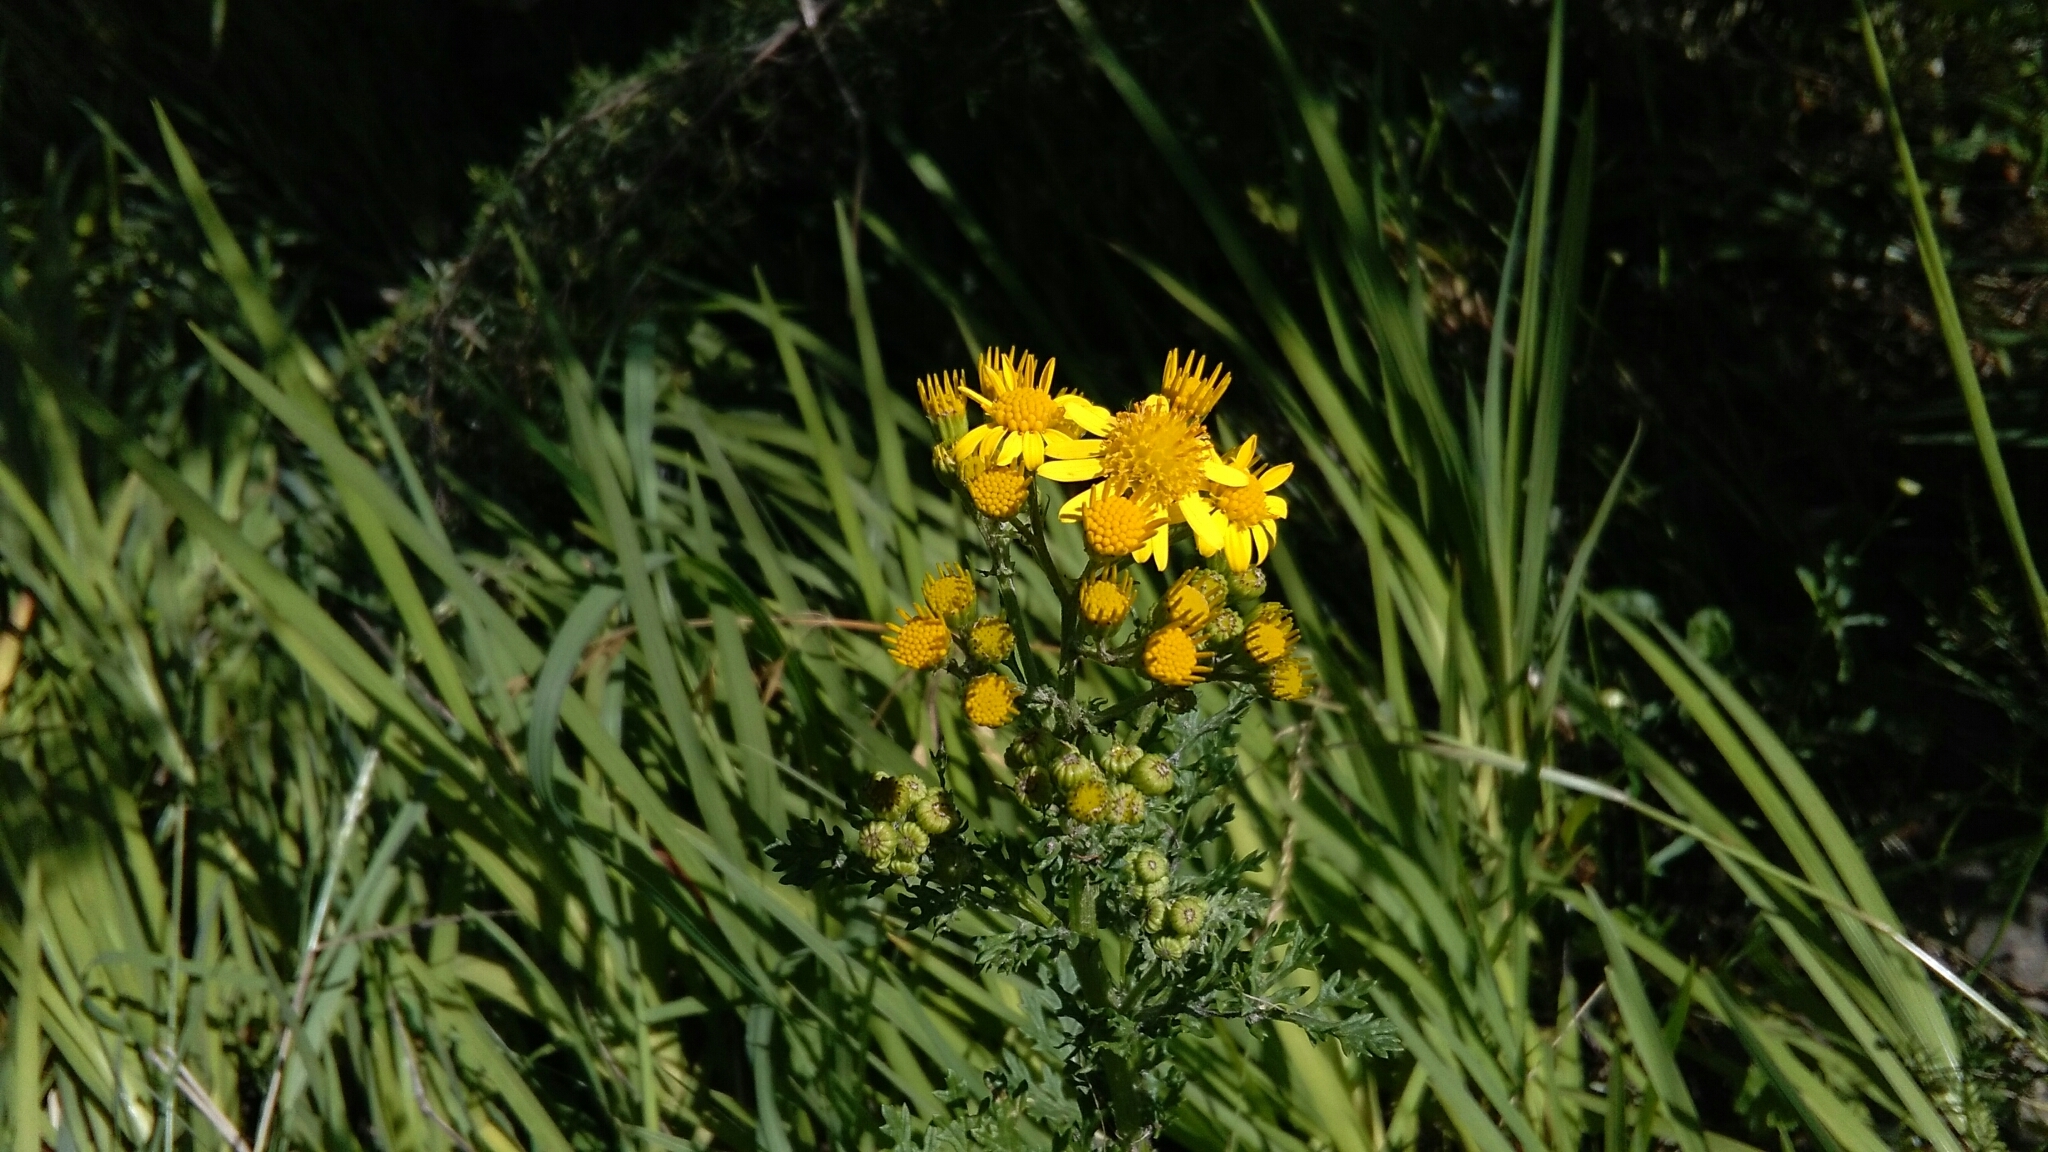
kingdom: Plantae
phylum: Tracheophyta
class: Magnoliopsida
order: Asterales
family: Asteraceae
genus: Jacobaea
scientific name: Jacobaea vulgaris
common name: Stinking willie
